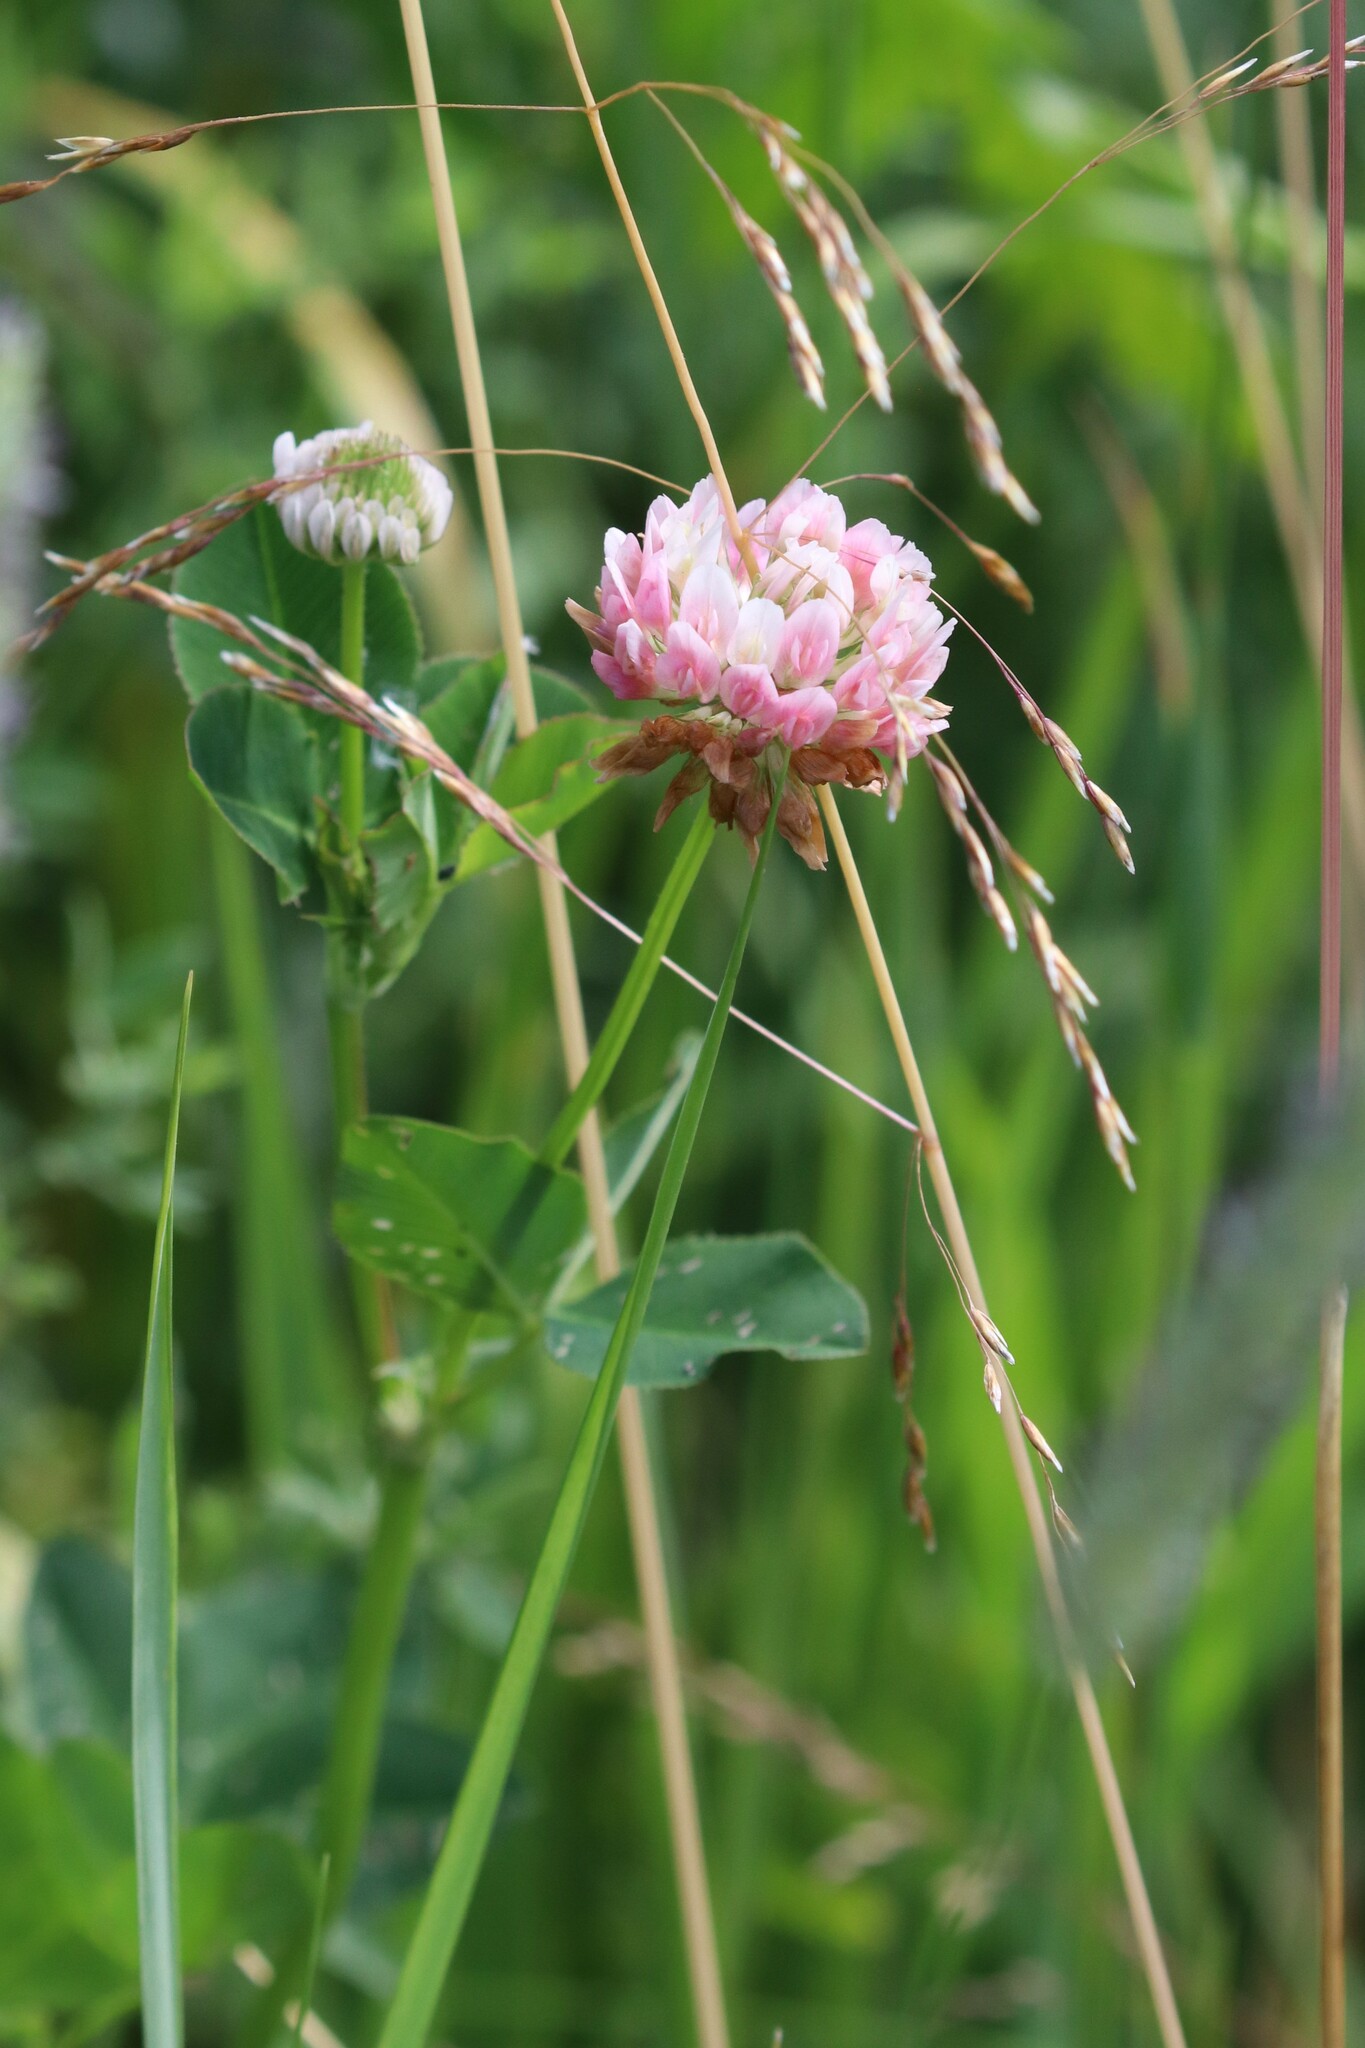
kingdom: Plantae
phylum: Tracheophyta
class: Magnoliopsida
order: Fabales
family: Fabaceae
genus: Trifolium
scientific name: Trifolium hybridum
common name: Alsike clover
